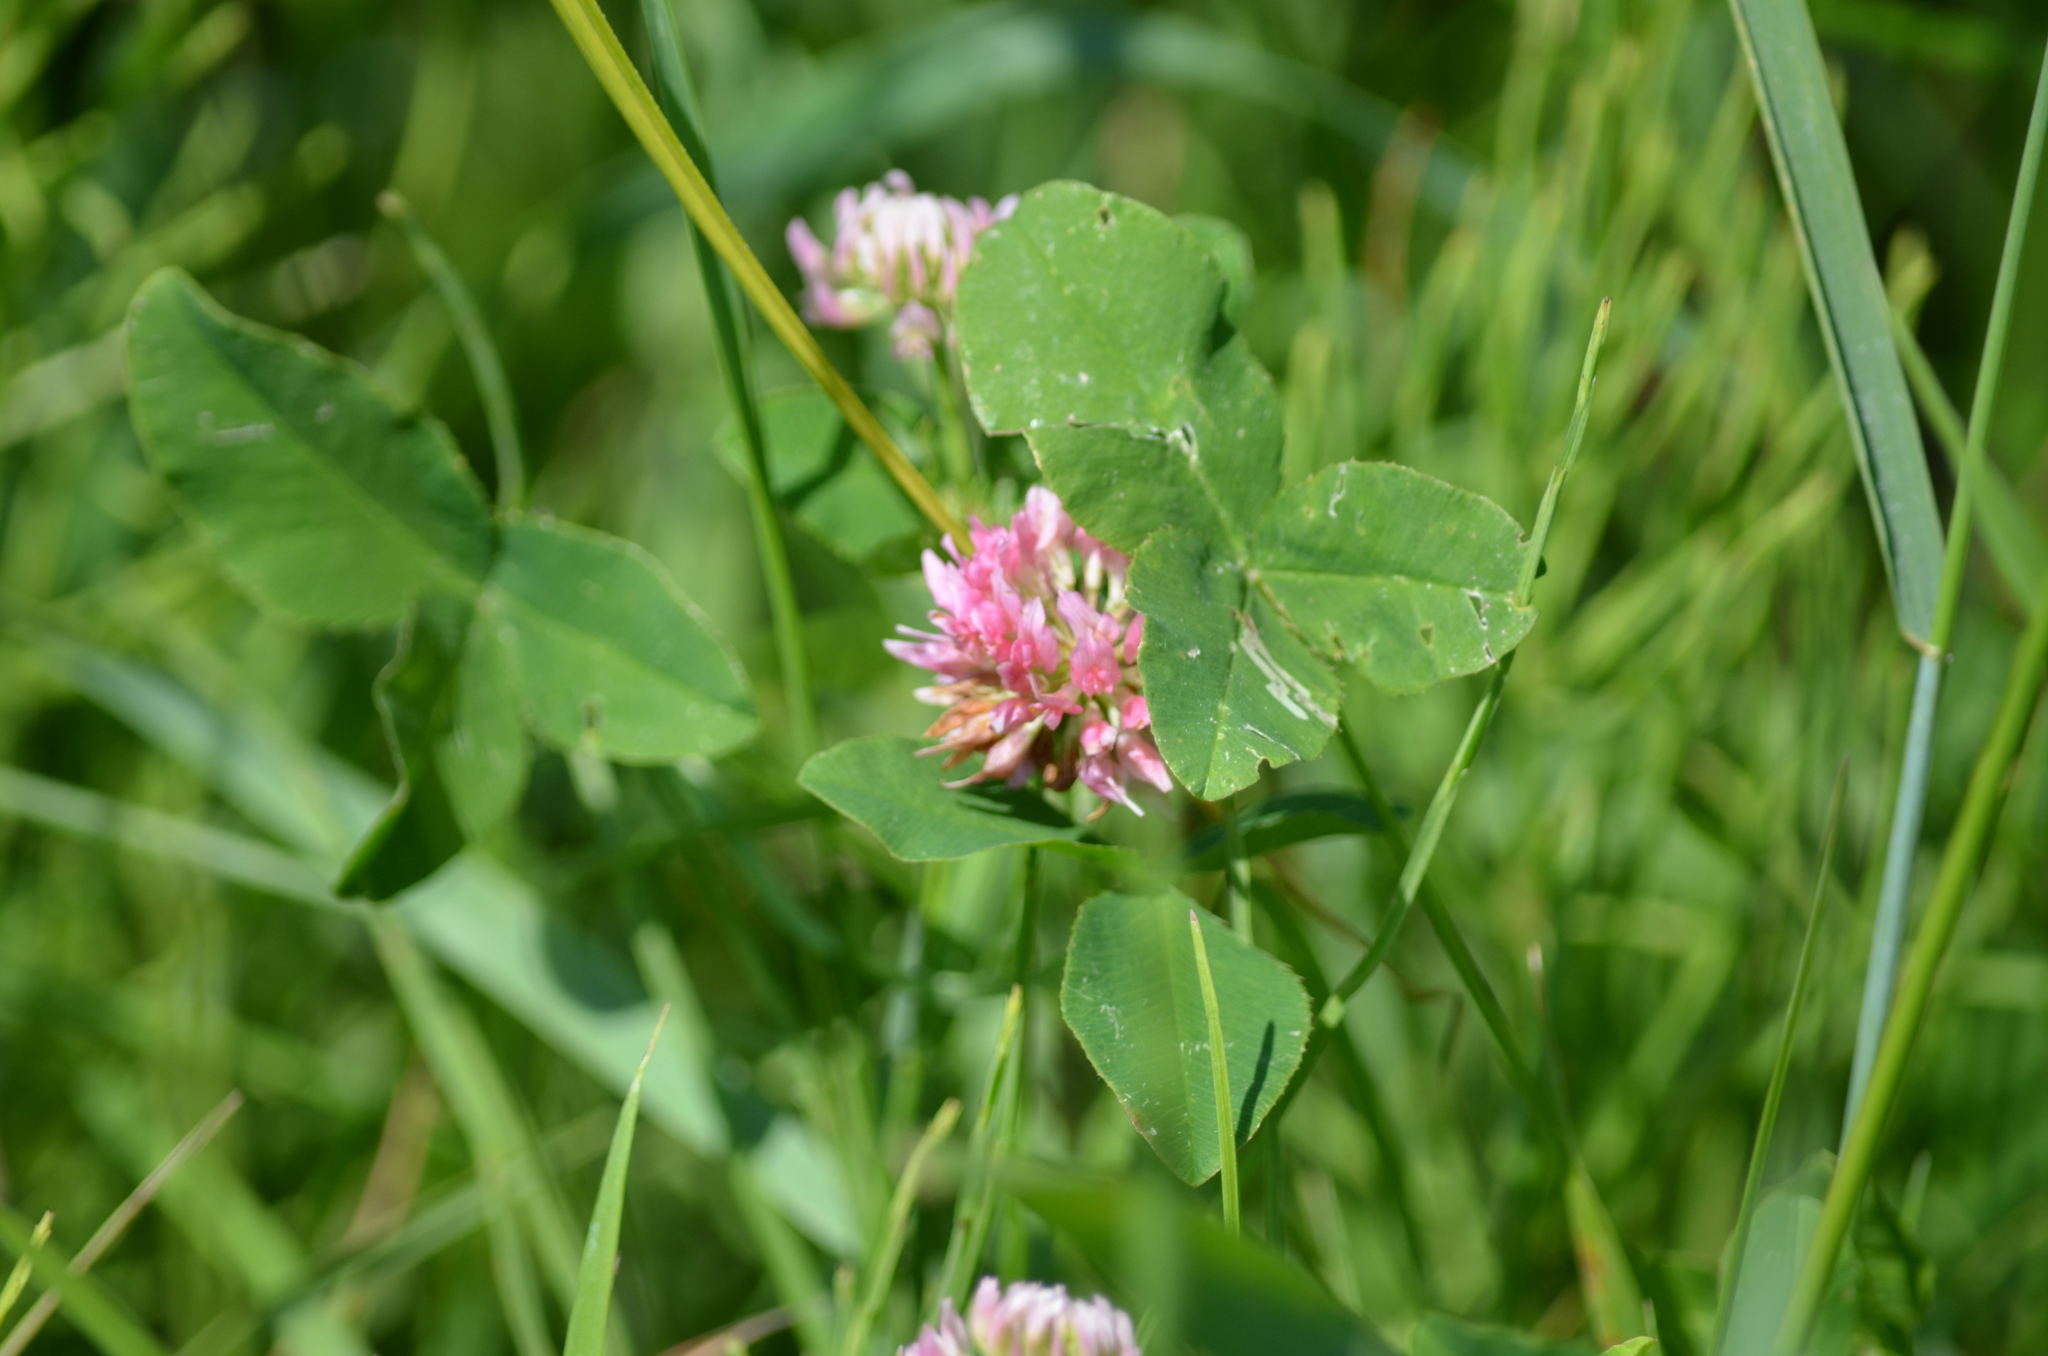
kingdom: Plantae
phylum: Tracheophyta
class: Magnoliopsida
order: Fabales
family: Fabaceae
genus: Trifolium
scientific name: Trifolium hybridum
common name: Alsike clover
